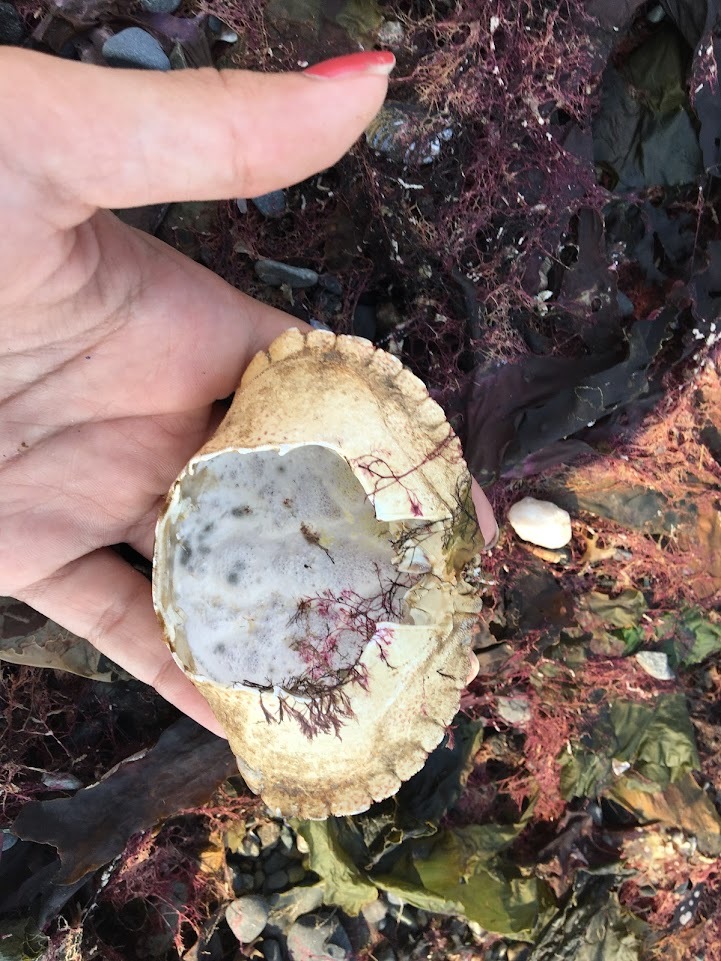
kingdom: Animalia
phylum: Arthropoda
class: Malacostraca
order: Decapoda
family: Cancridae
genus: Cancer
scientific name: Cancer borealis
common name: Jonah crab
